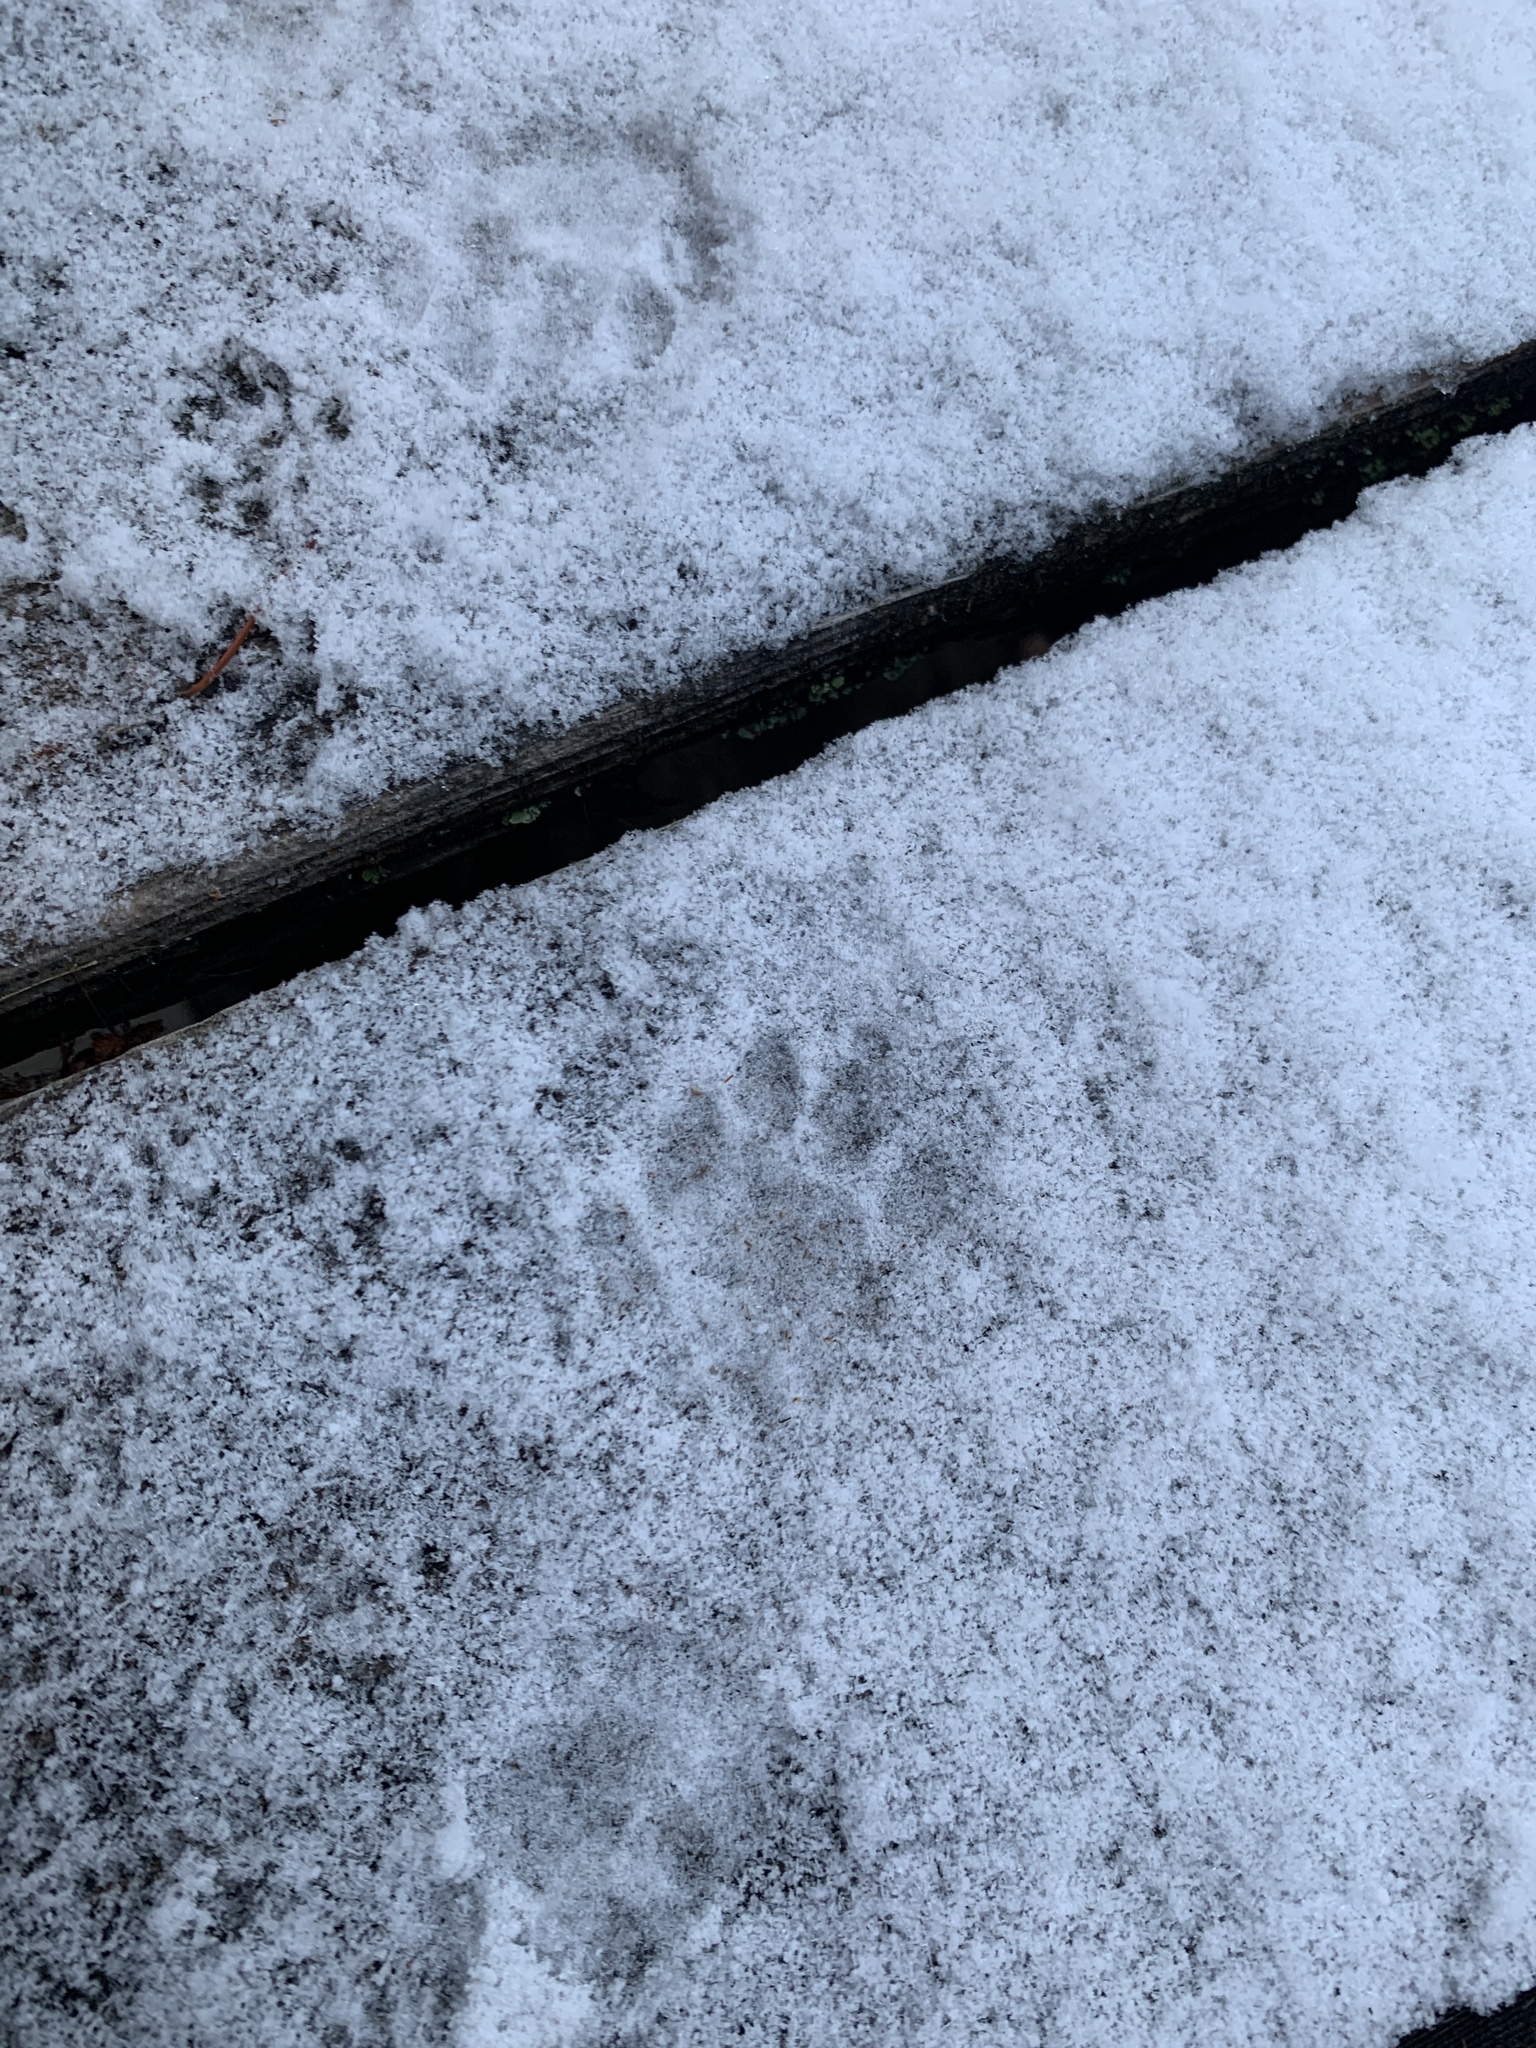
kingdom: Animalia
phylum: Chordata
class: Mammalia
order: Carnivora
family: Felidae
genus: Felis
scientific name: Felis catus
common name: Domestic cat
